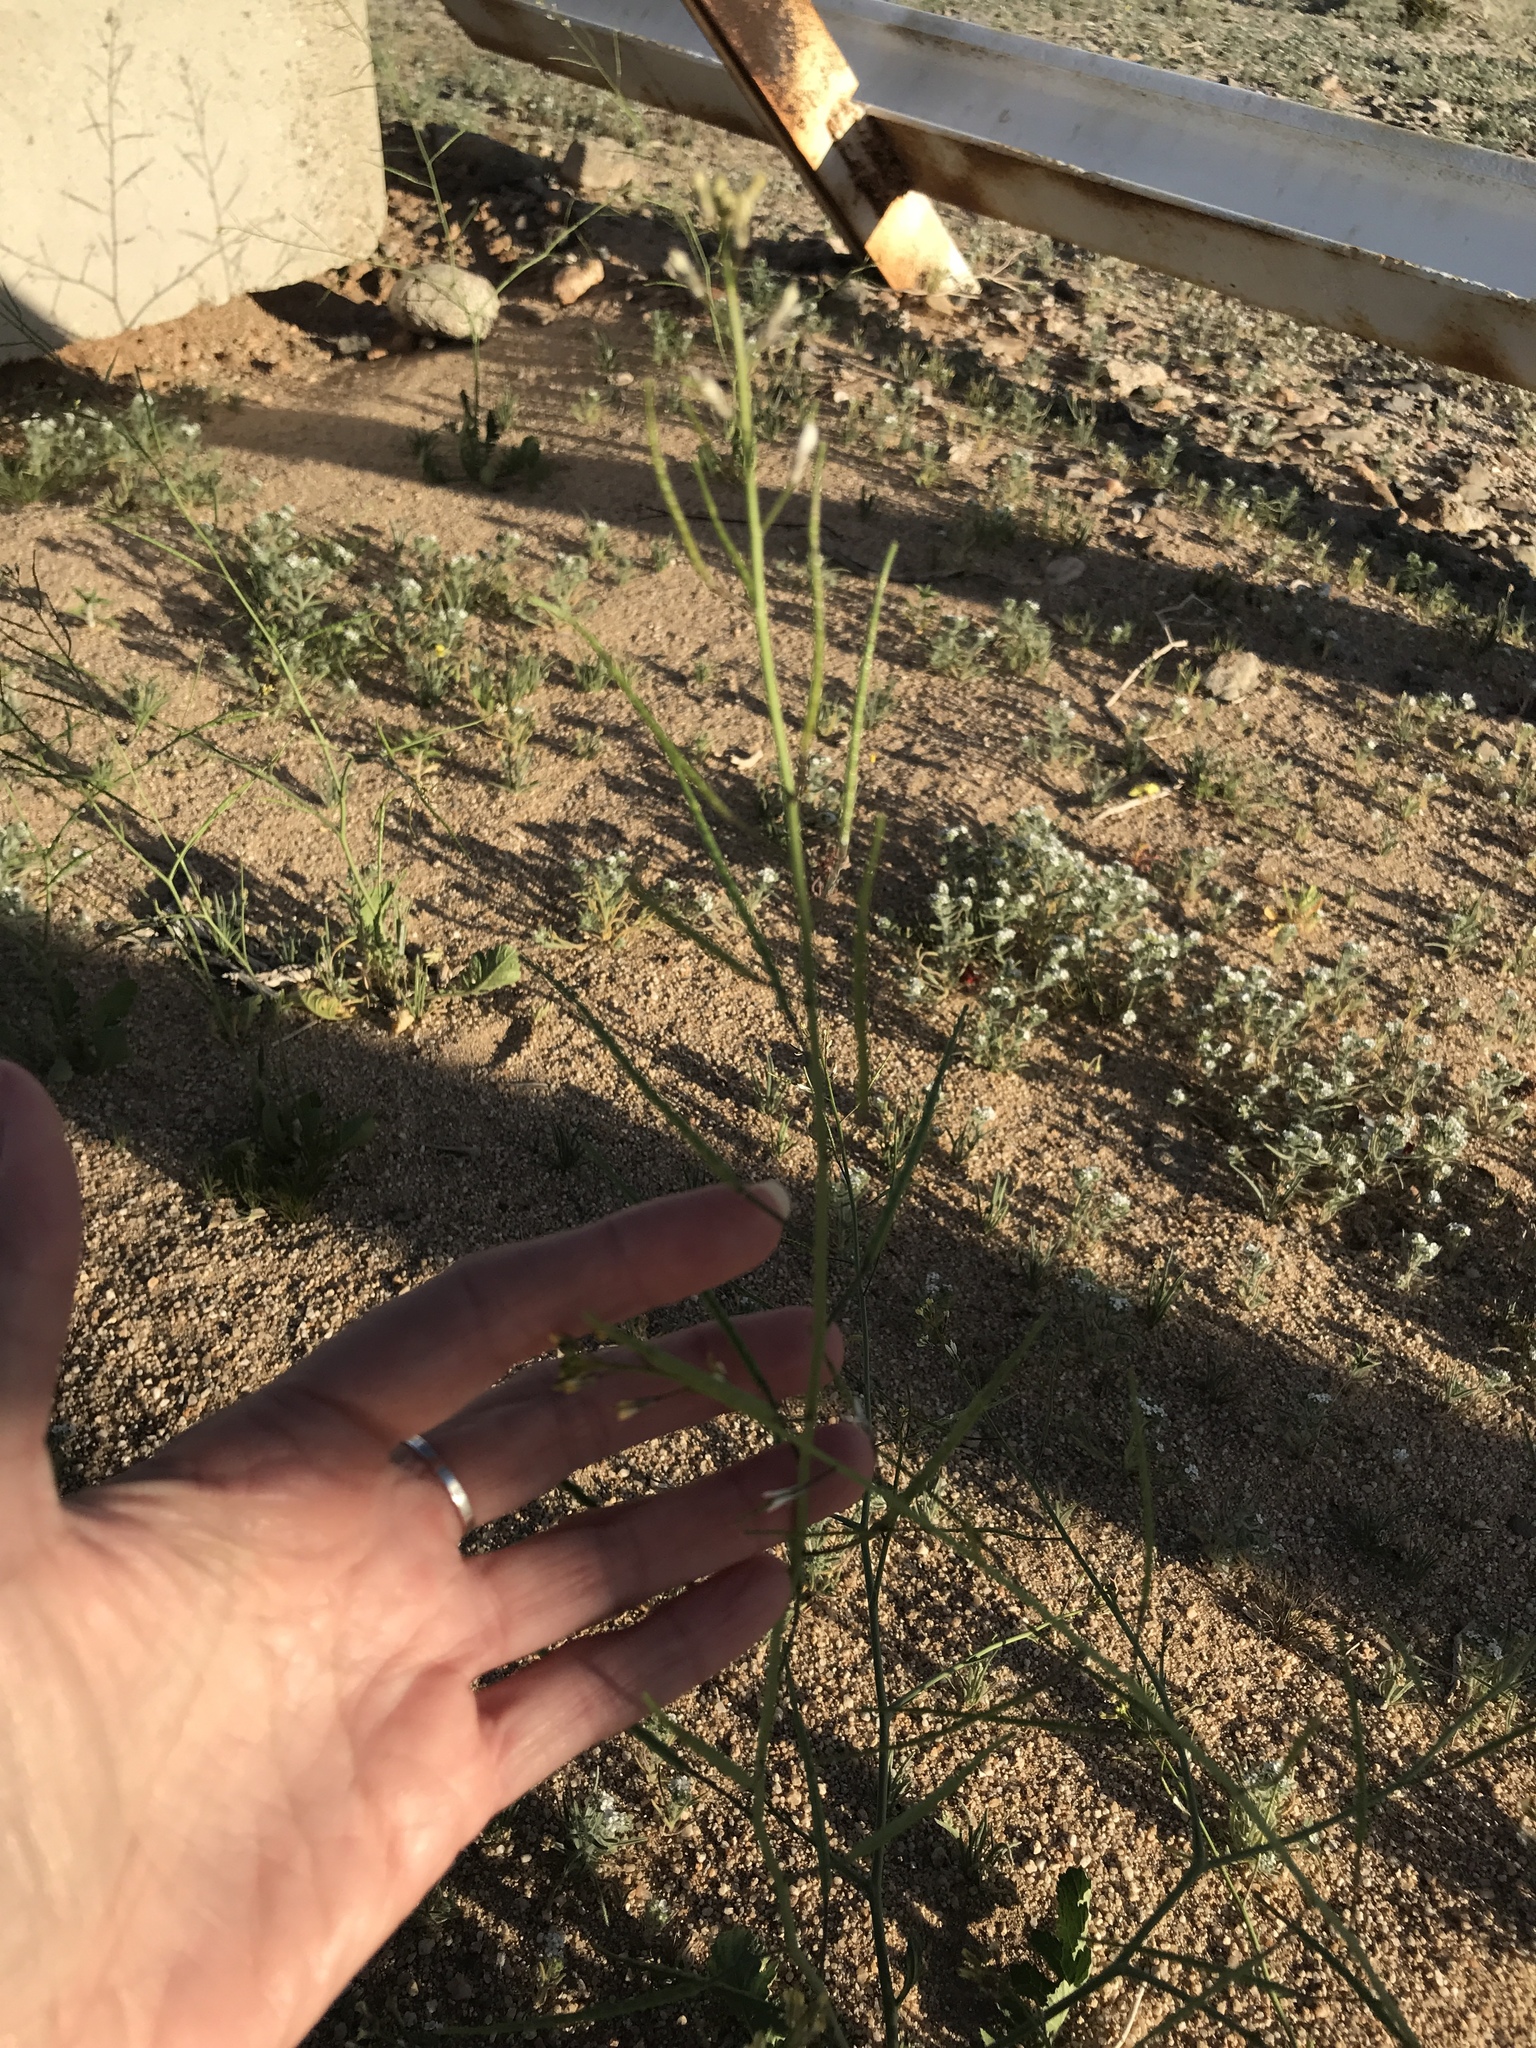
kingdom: Plantae
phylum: Tracheophyta
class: Magnoliopsida
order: Brassicales
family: Brassicaceae
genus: Brassica
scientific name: Brassica tournefortii
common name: Pale cabbage
